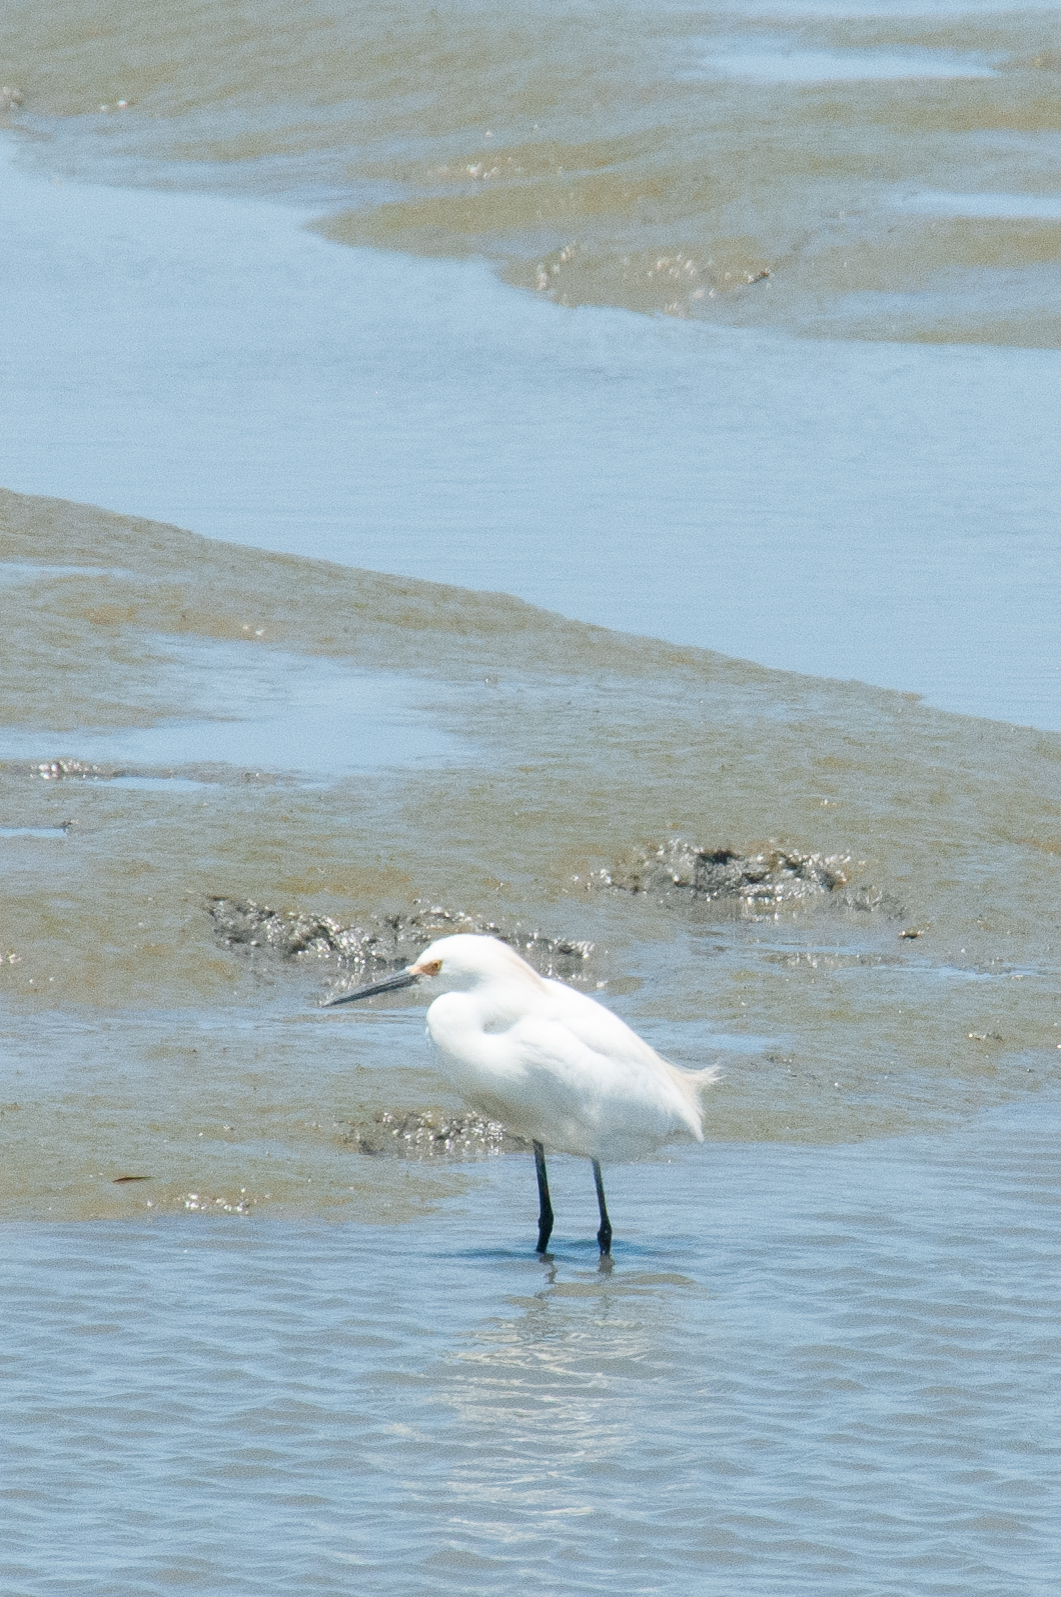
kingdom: Animalia
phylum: Chordata
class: Aves
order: Pelecaniformes
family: Ardeidae
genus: Egretta
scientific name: Egretta thula
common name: Snowy egret
